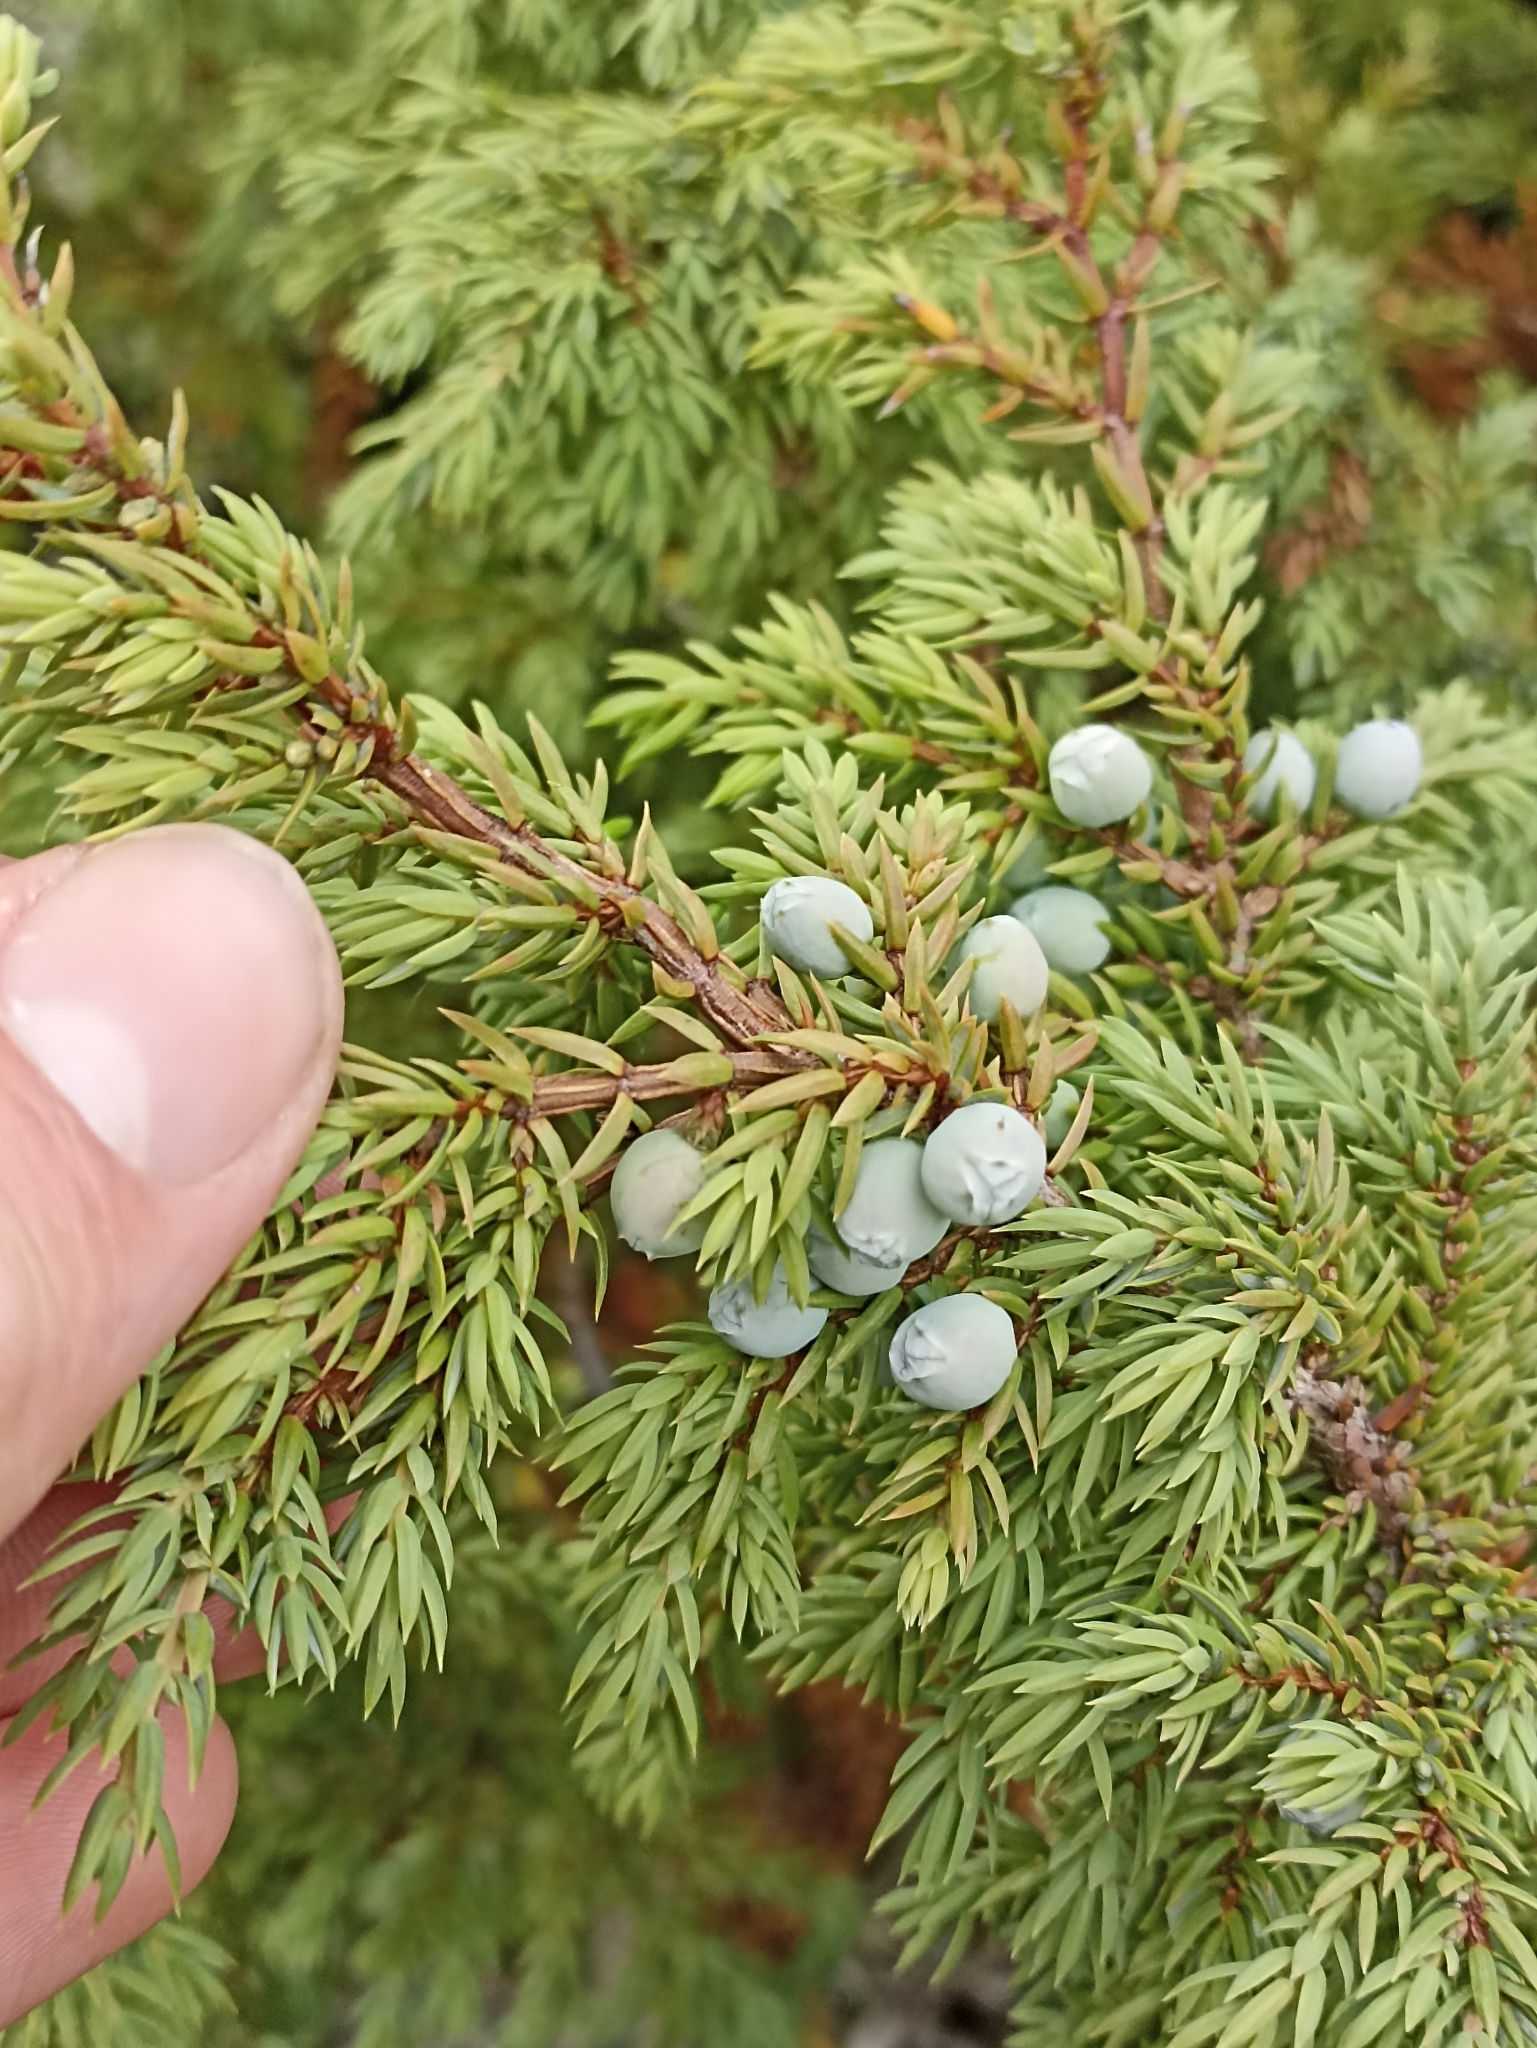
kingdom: Plantae
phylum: Tracheophyta
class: Pinopsida
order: Pinales
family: Cupressaceae
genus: Juniperus
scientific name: Juniperus communis
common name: Common juniper
